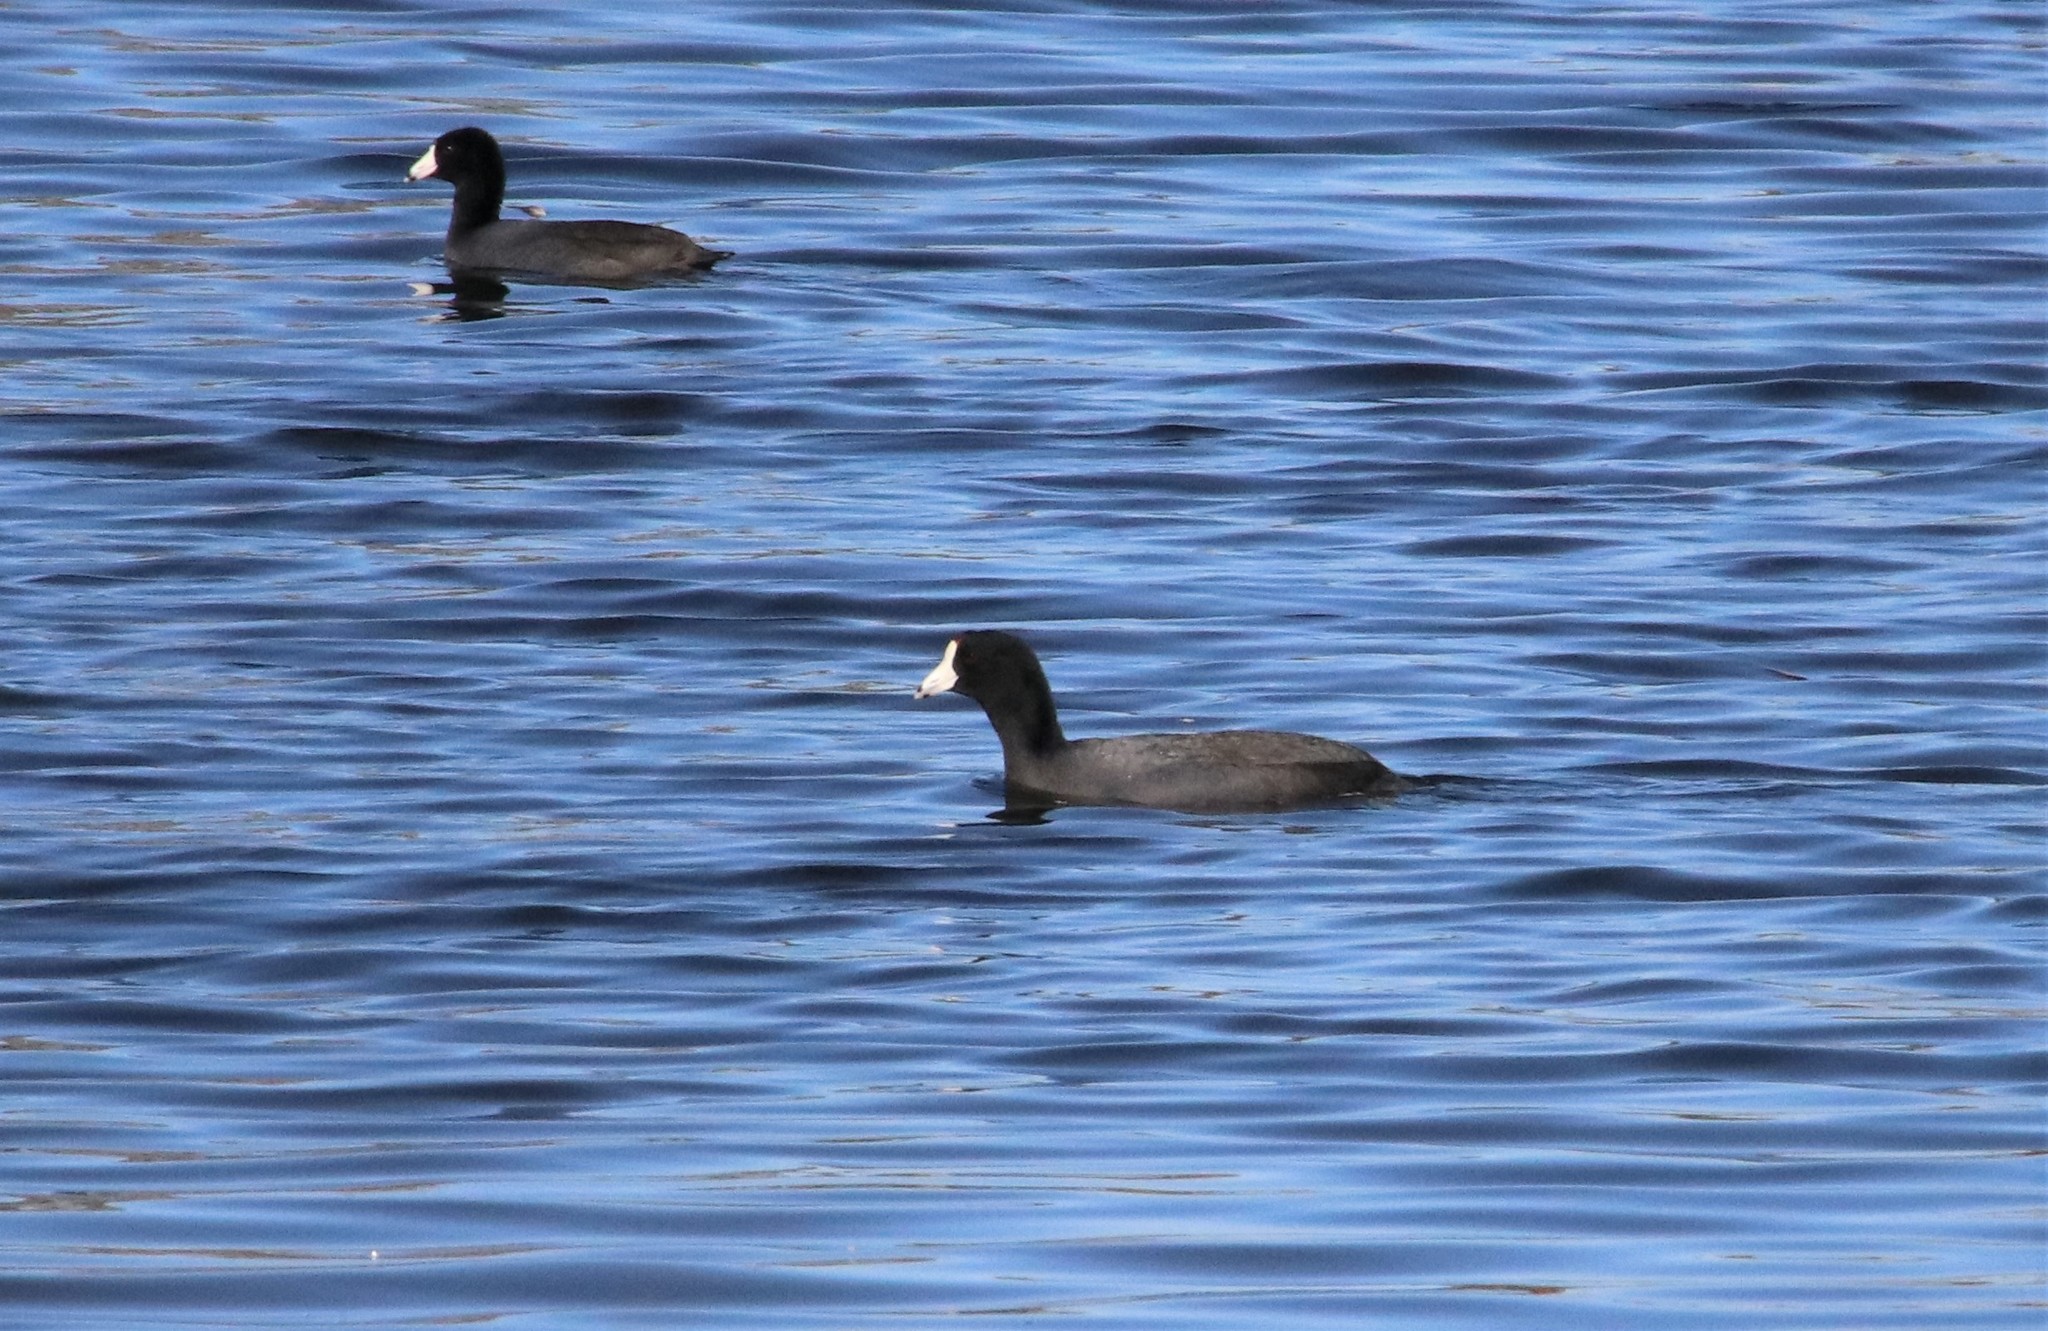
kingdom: Animalia
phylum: Chordata
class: Aves
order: Gruiformes
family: Rallidae
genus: Fulica
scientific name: Fulica americana
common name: American coot
